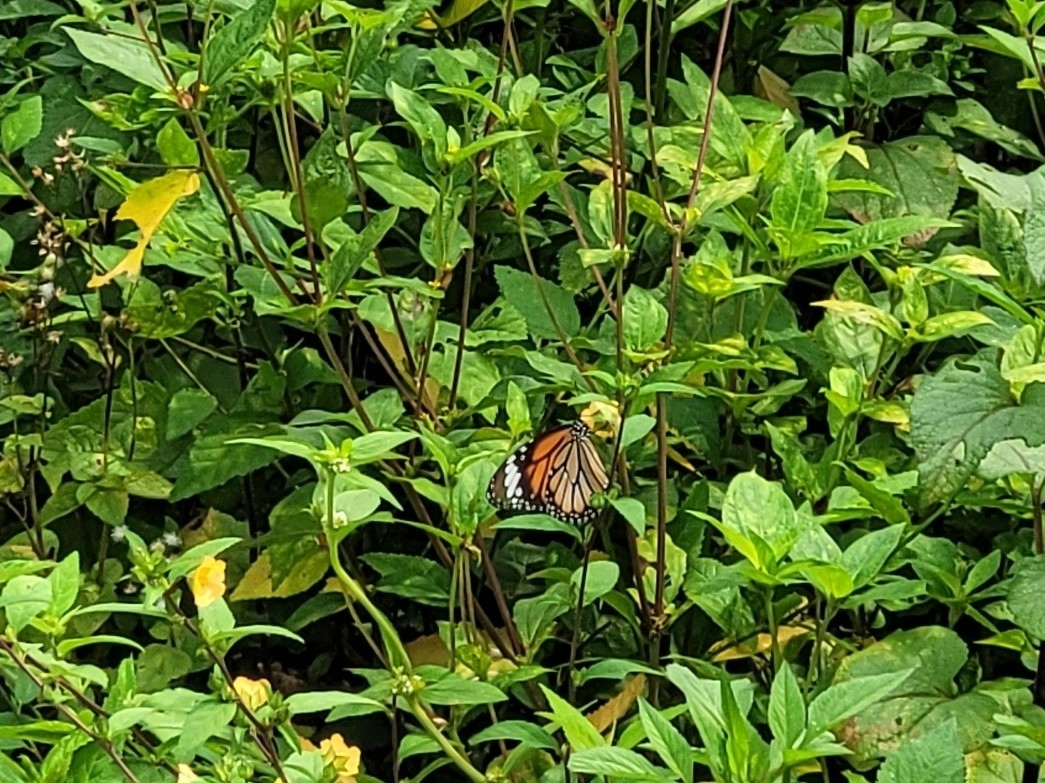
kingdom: Animalia
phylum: Arthropoda
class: Insecta
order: Lepidoptera
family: Nymphalidae
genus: Danaus
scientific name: Danaus genutia
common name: Common tiger butterfly
